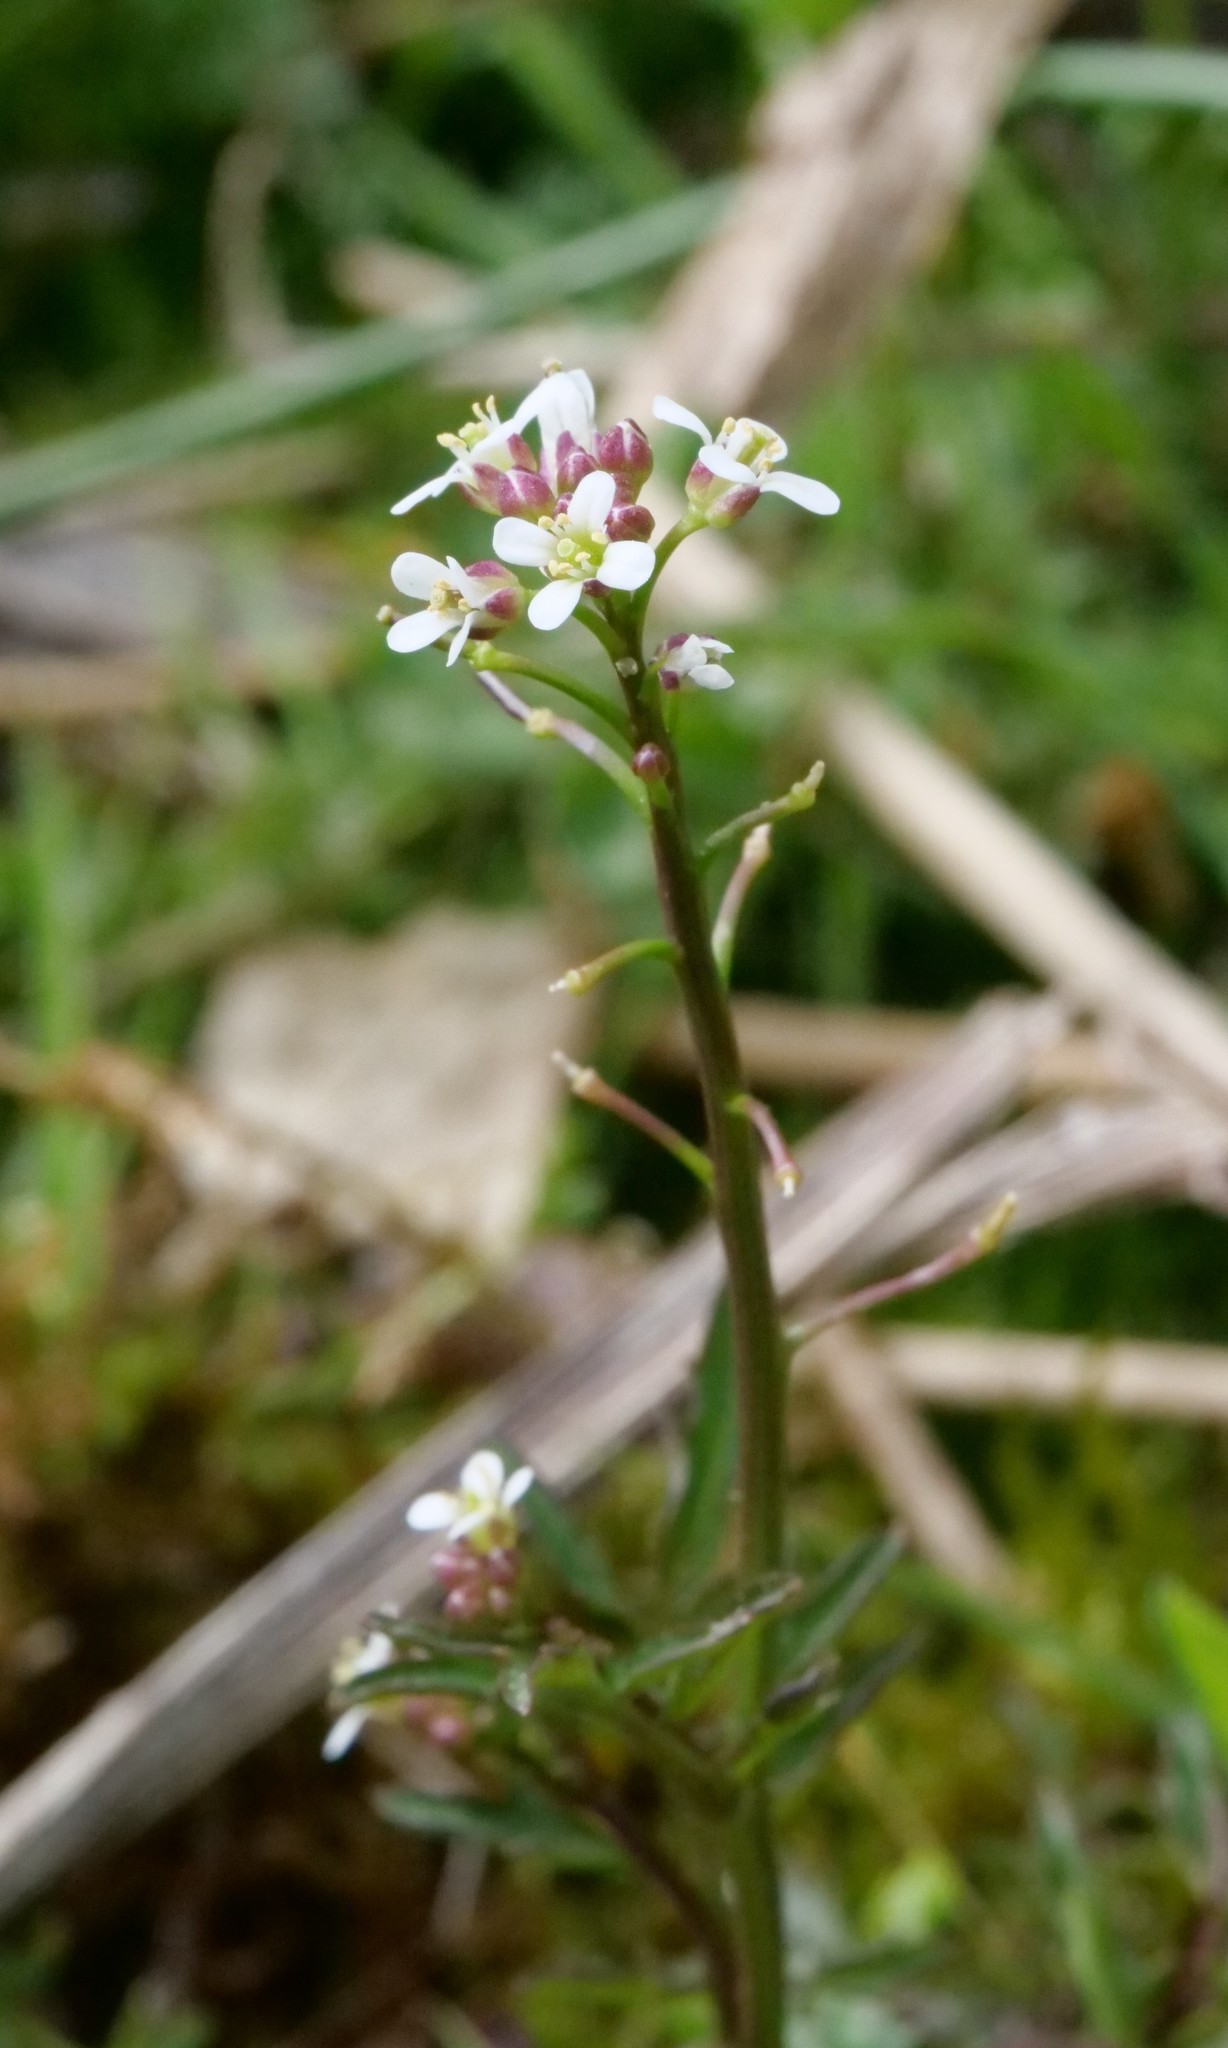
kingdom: Plantae
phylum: Tracheophyta
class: Magnoliopsida
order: Brassicales
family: Brassicaceae
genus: Cardamine
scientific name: Cardamine flexuosa
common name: Woodland bittercress
